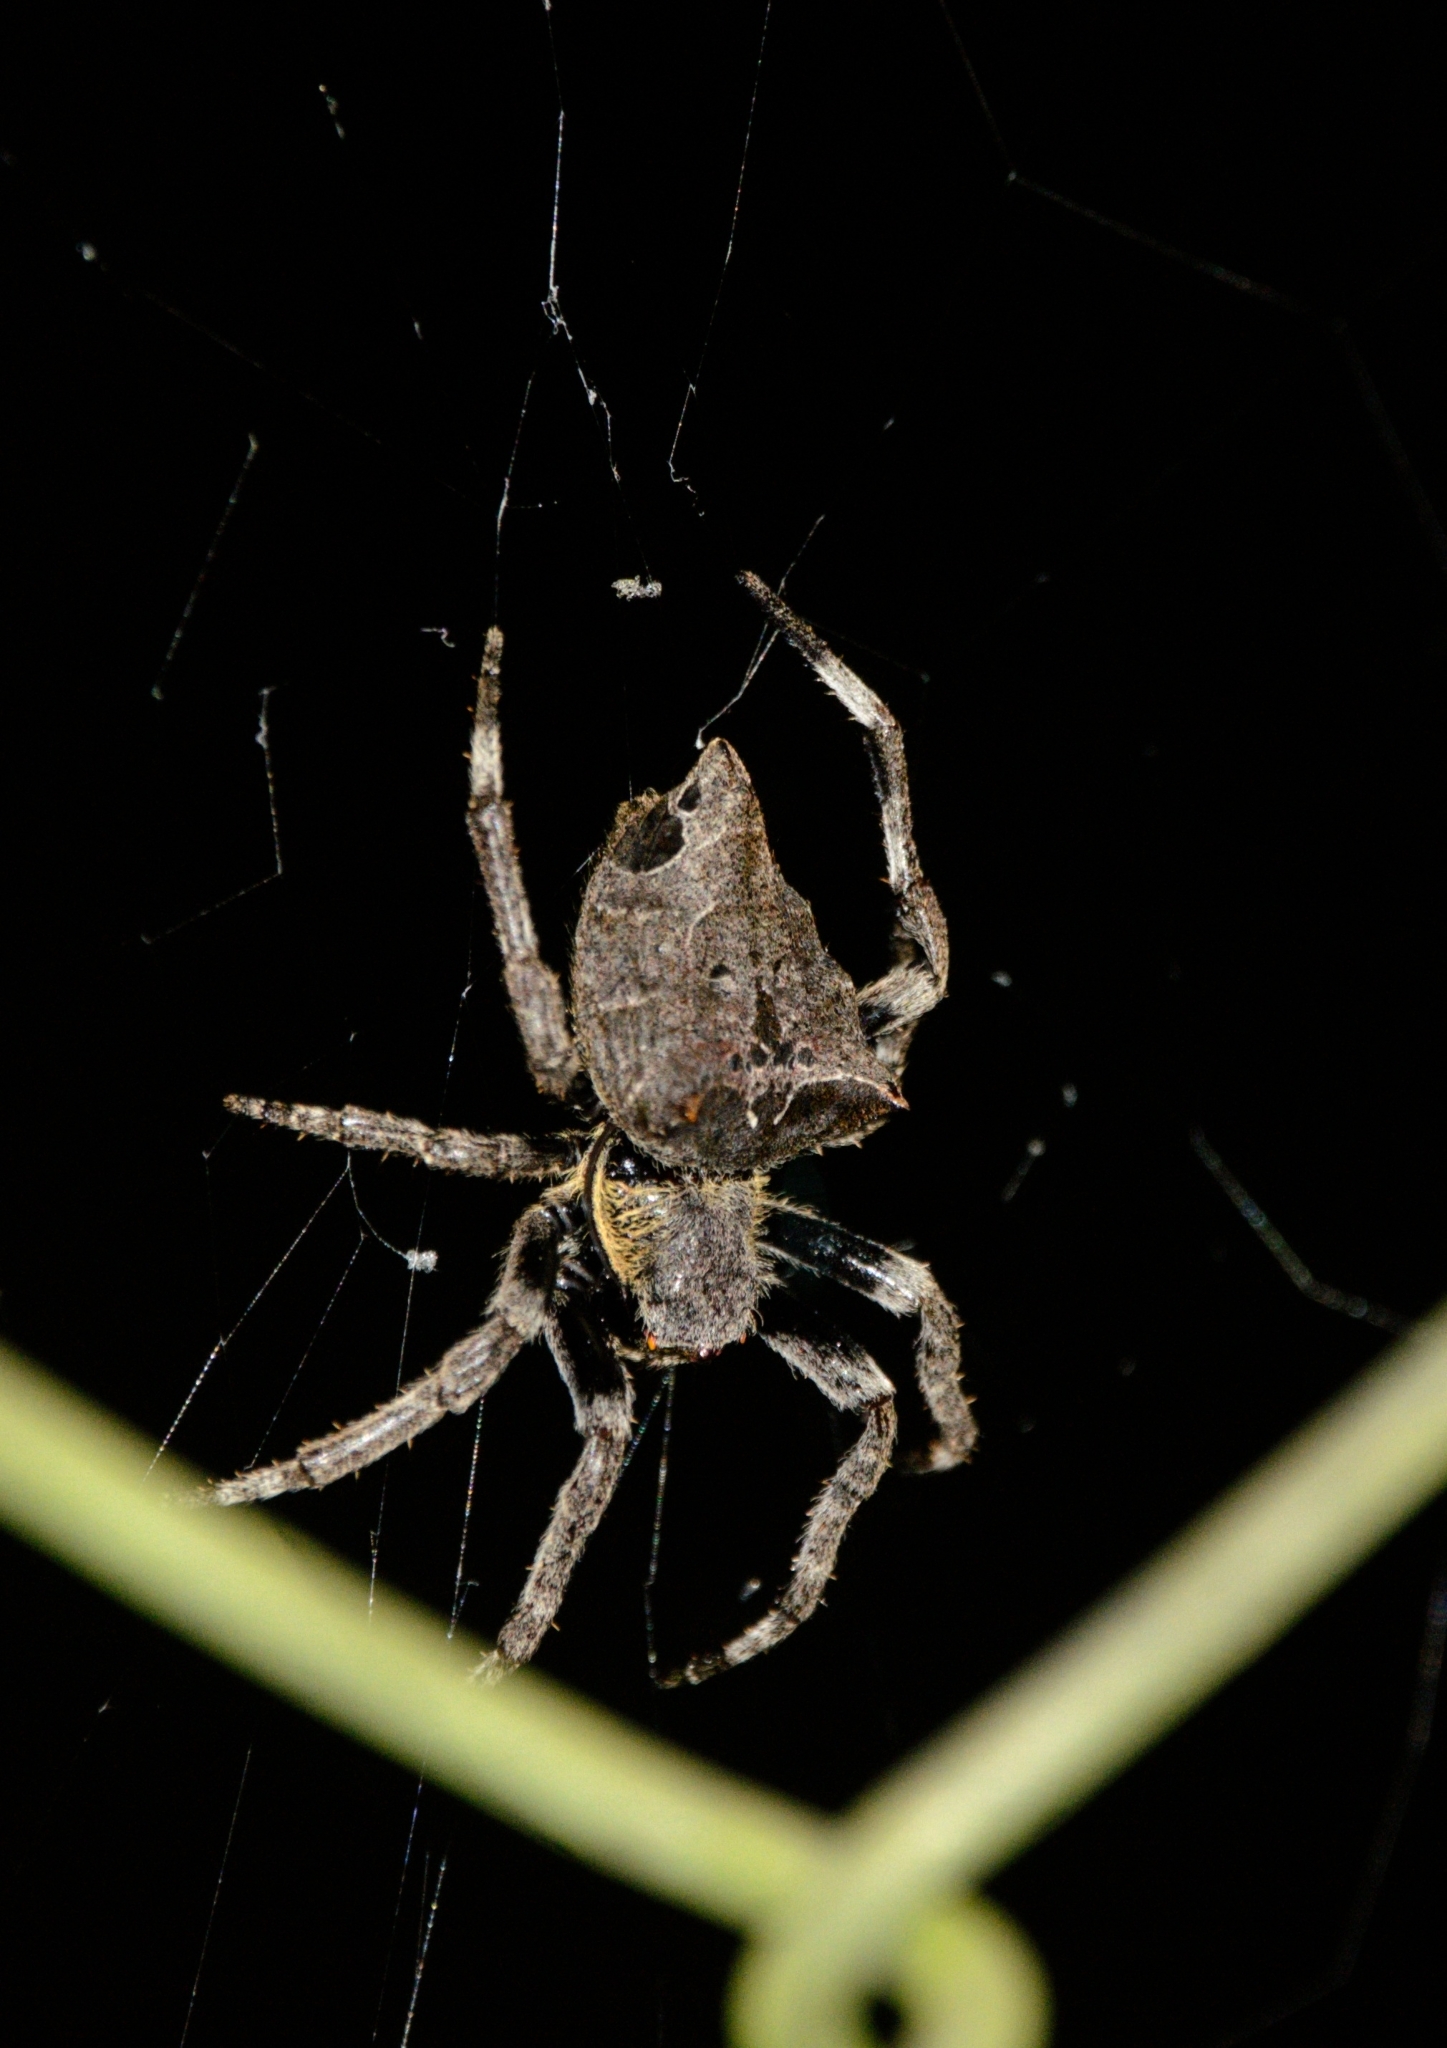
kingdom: Animalia
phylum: Arthropoda
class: Arachnida
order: Araneae
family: Araneidae
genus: Parawixia
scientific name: Parawixia dehaani
